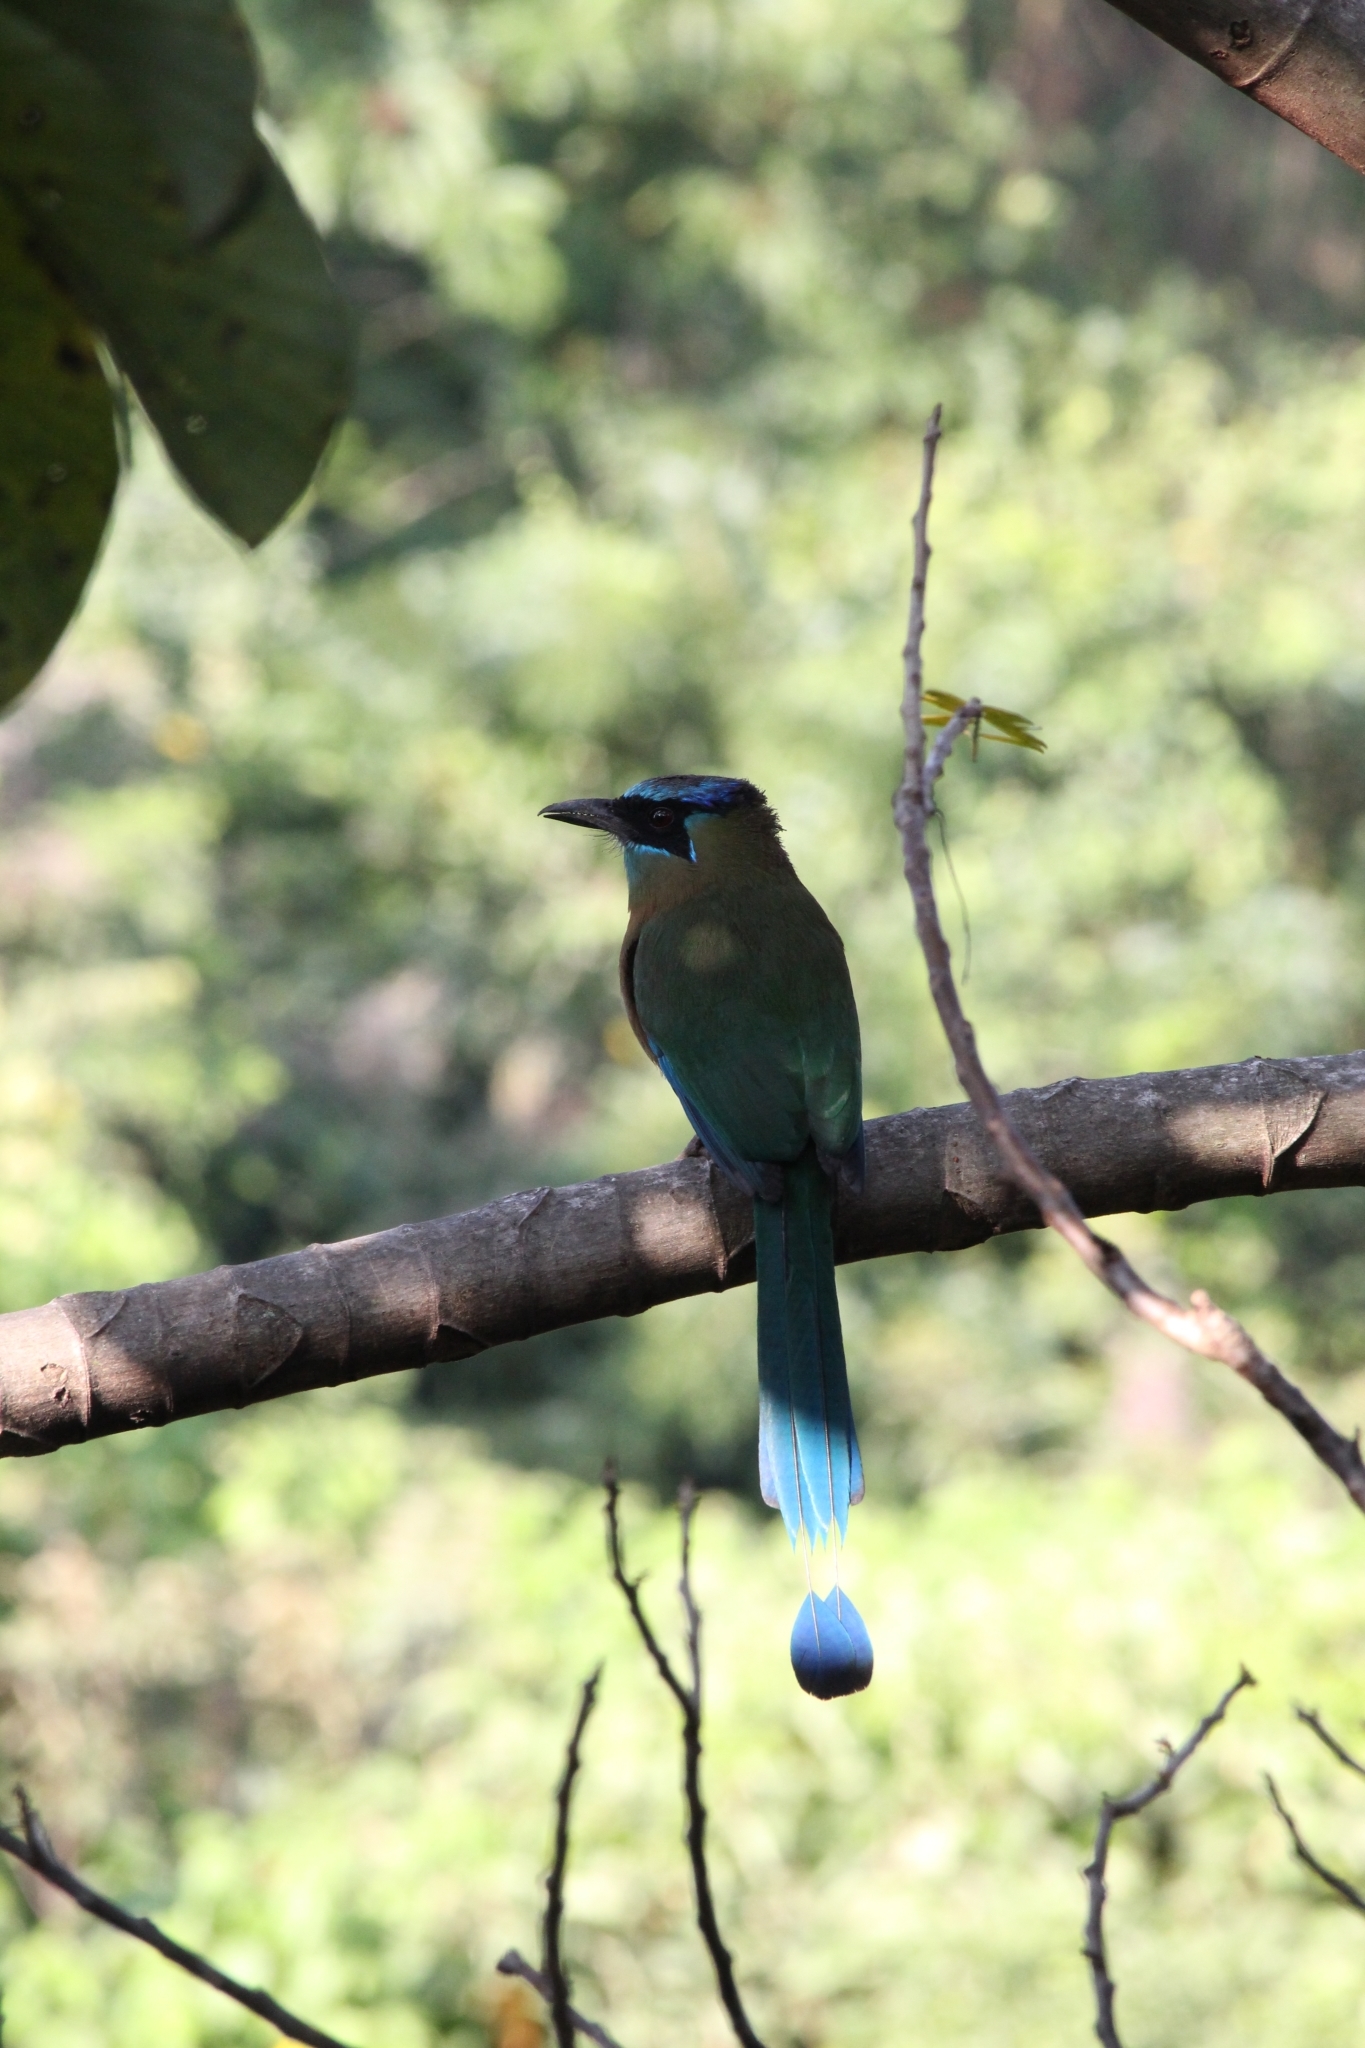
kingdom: Animalia
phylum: Chordata
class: Aves
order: Coraciiformes
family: Momotidae
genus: Momotus
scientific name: Momotus lessonii
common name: Lesson's motmot
